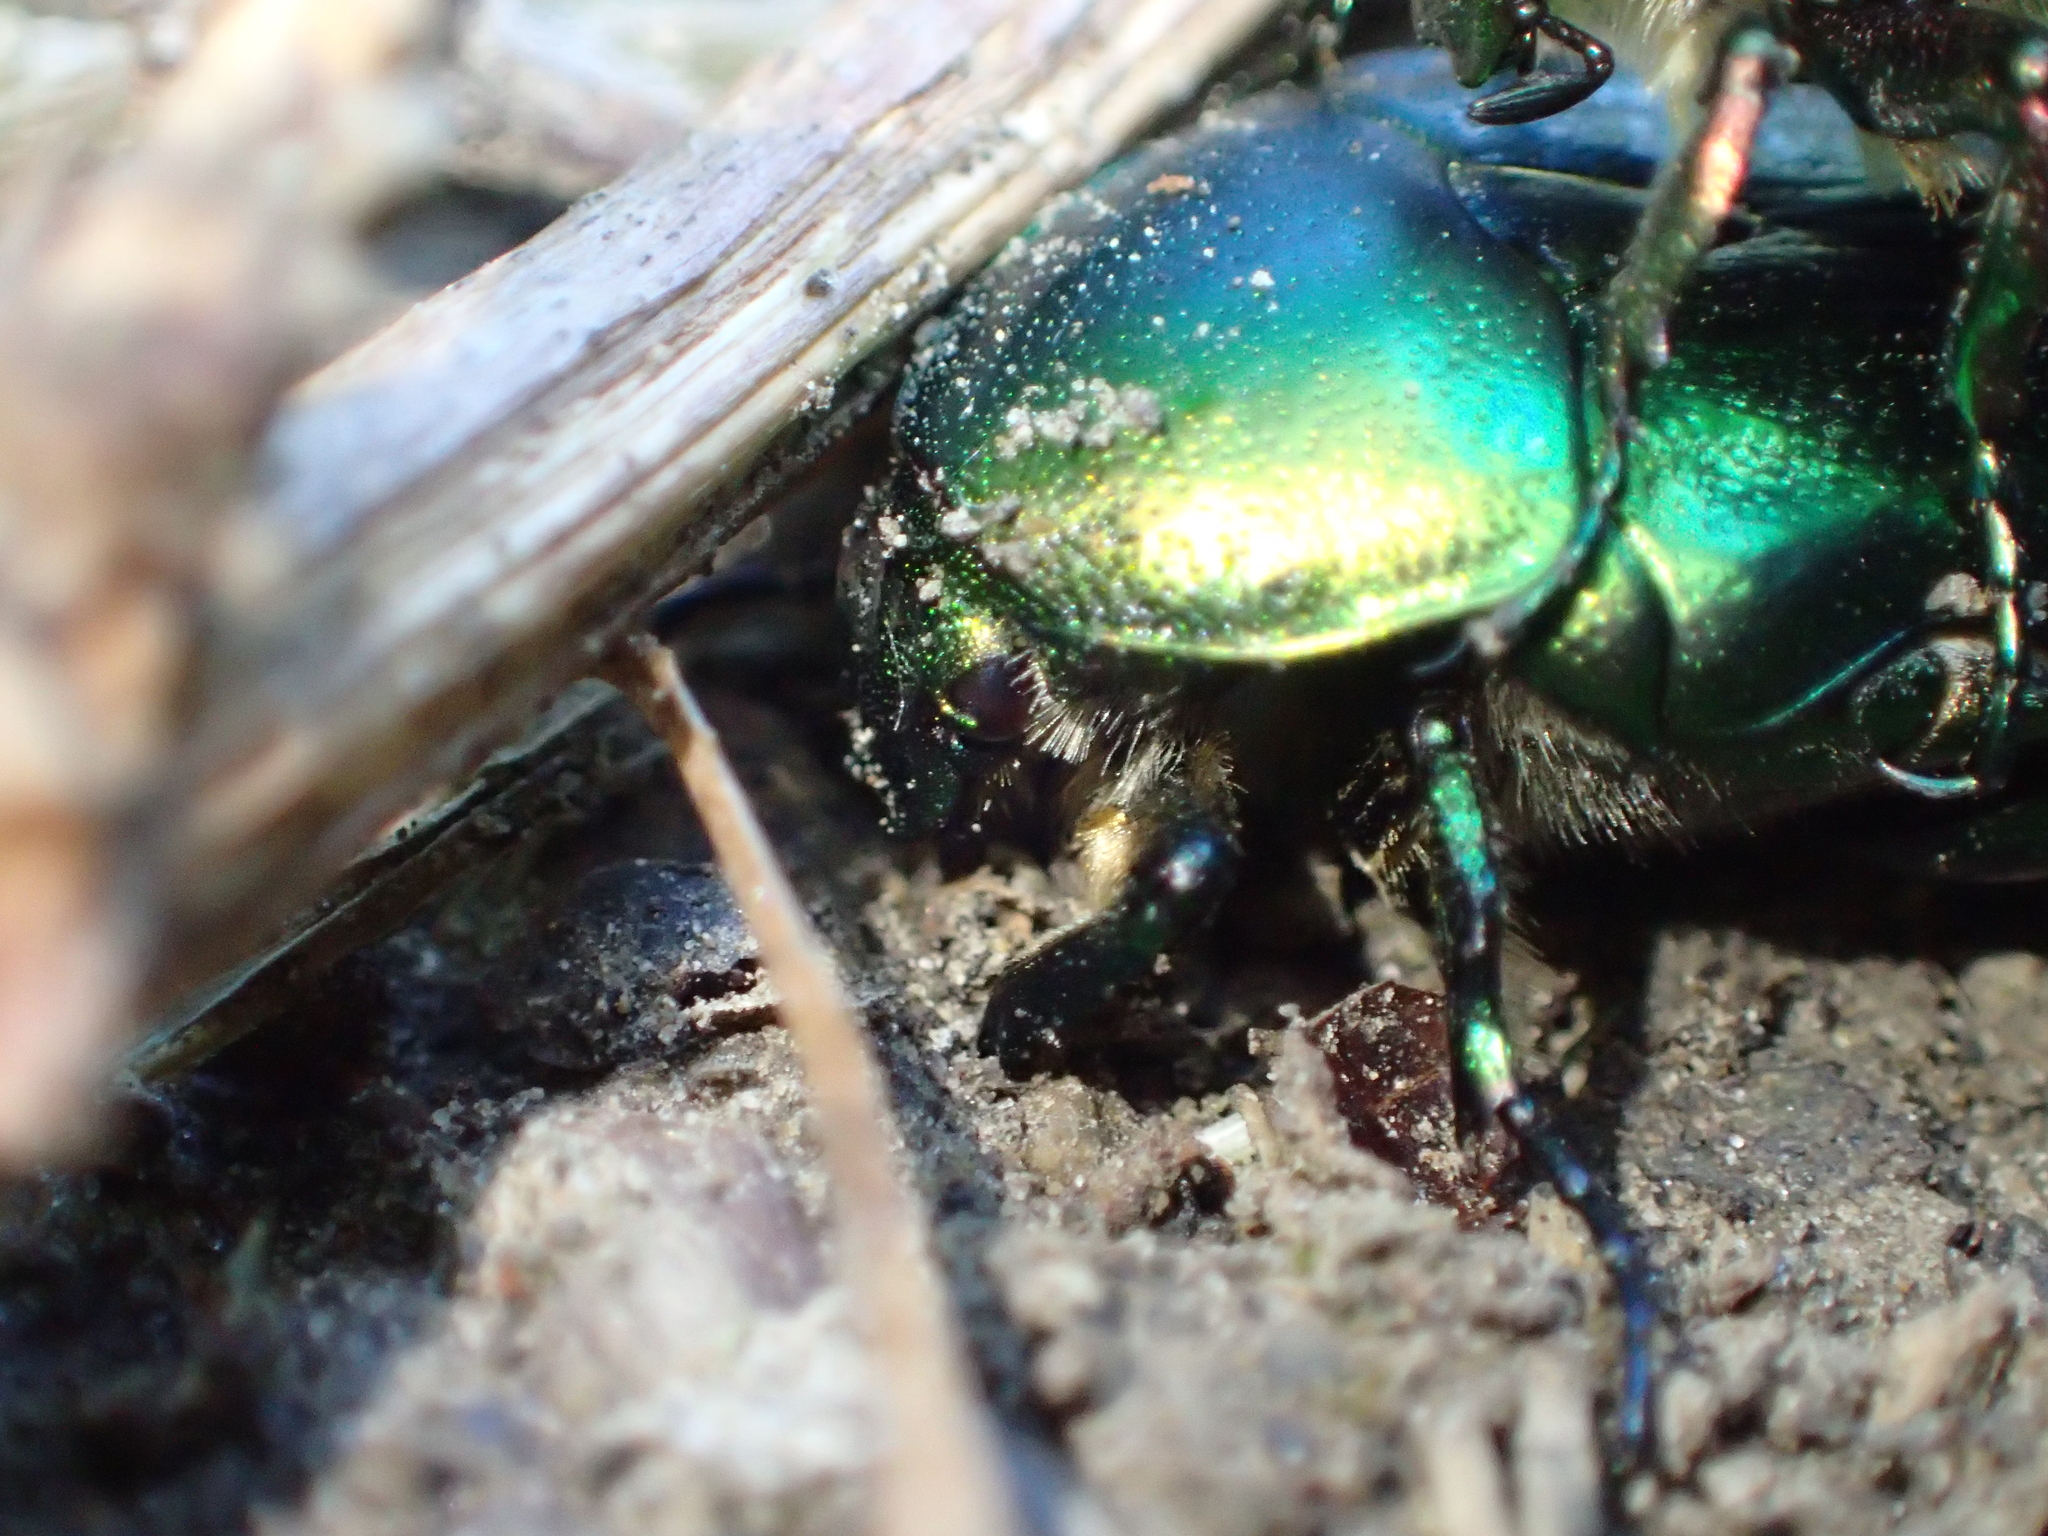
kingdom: Animalia
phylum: Arthropoda
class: Insecta
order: Coleoptera
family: Scarabaeidae
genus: Cetonia
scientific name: Cetonia aurata
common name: Rose chafer
